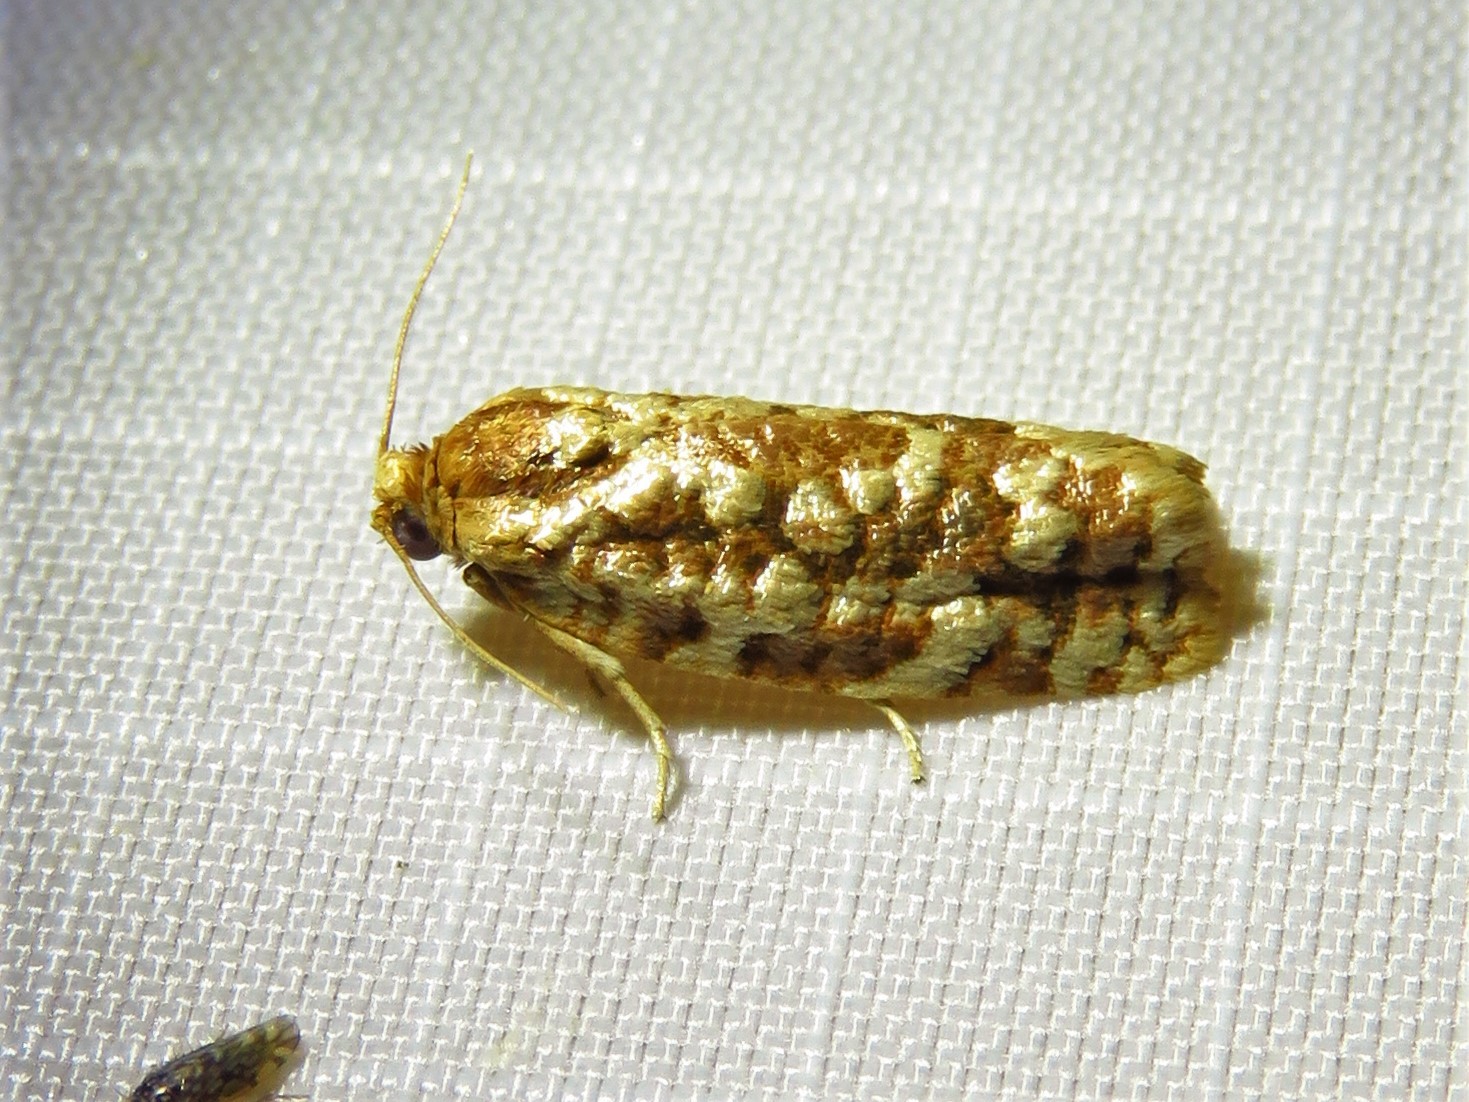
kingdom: Animalia
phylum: Arthropoda
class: Insecta
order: Lepidoptera
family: Tortricidae
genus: Choristoneura
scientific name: Choristoneura houstonana
